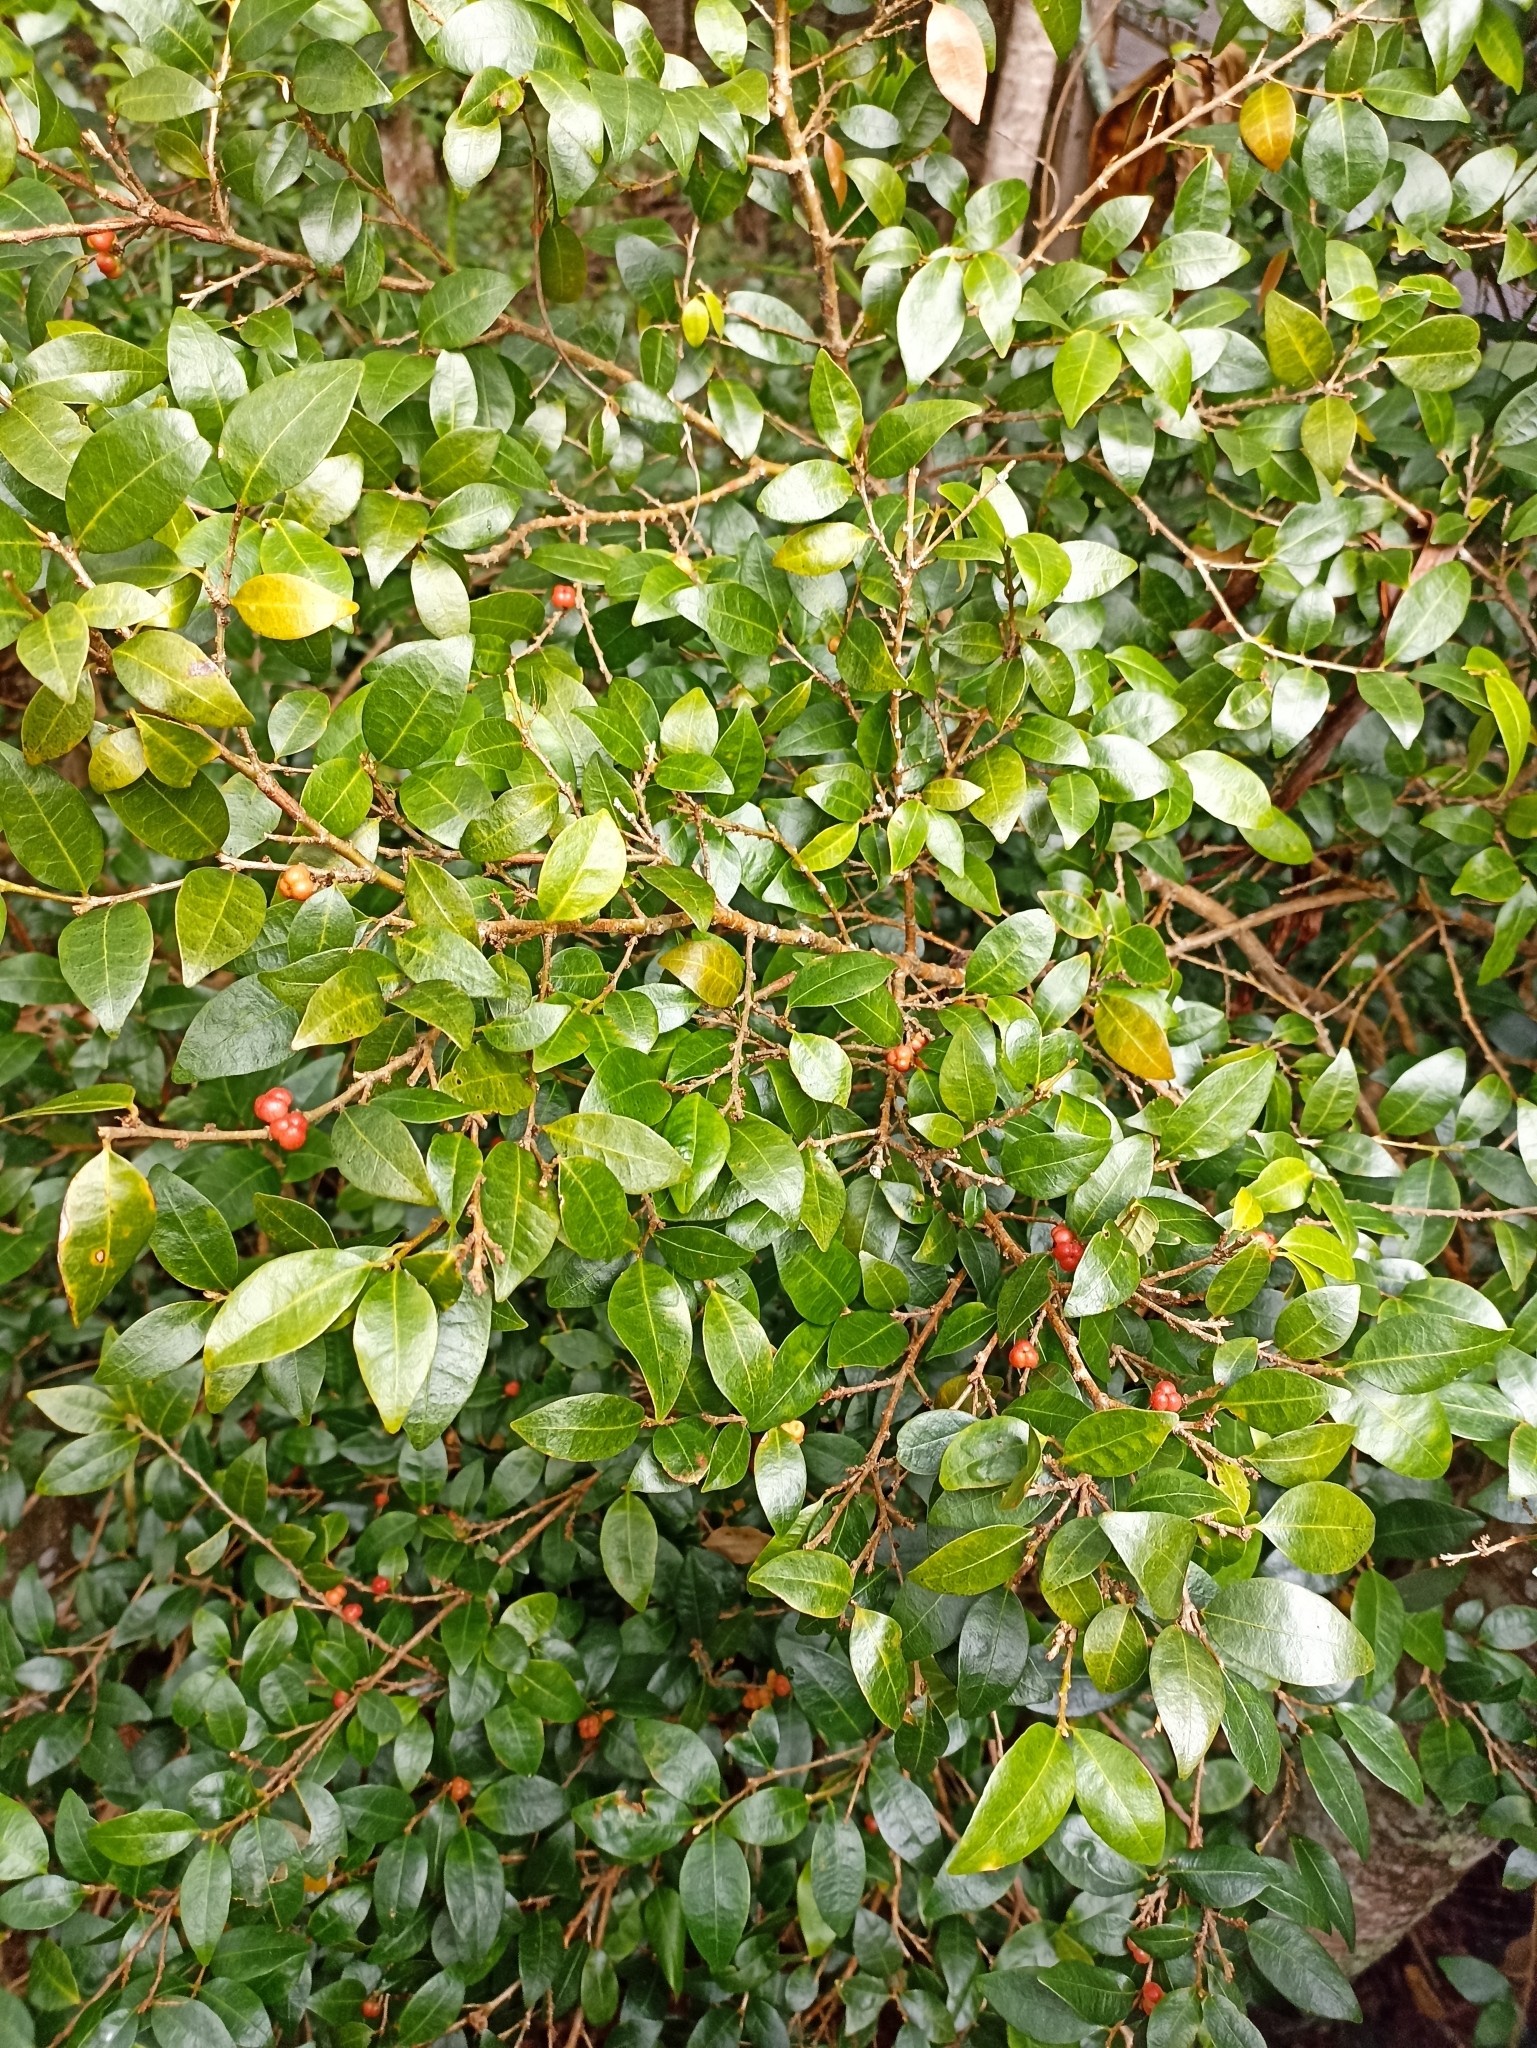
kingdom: Plantae
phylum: Tracheophyta
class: Magnoliopsida
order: Malpighiales
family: Phyllanthaceae
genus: Cleistanthus
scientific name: Cleistanthus cunninghamii
